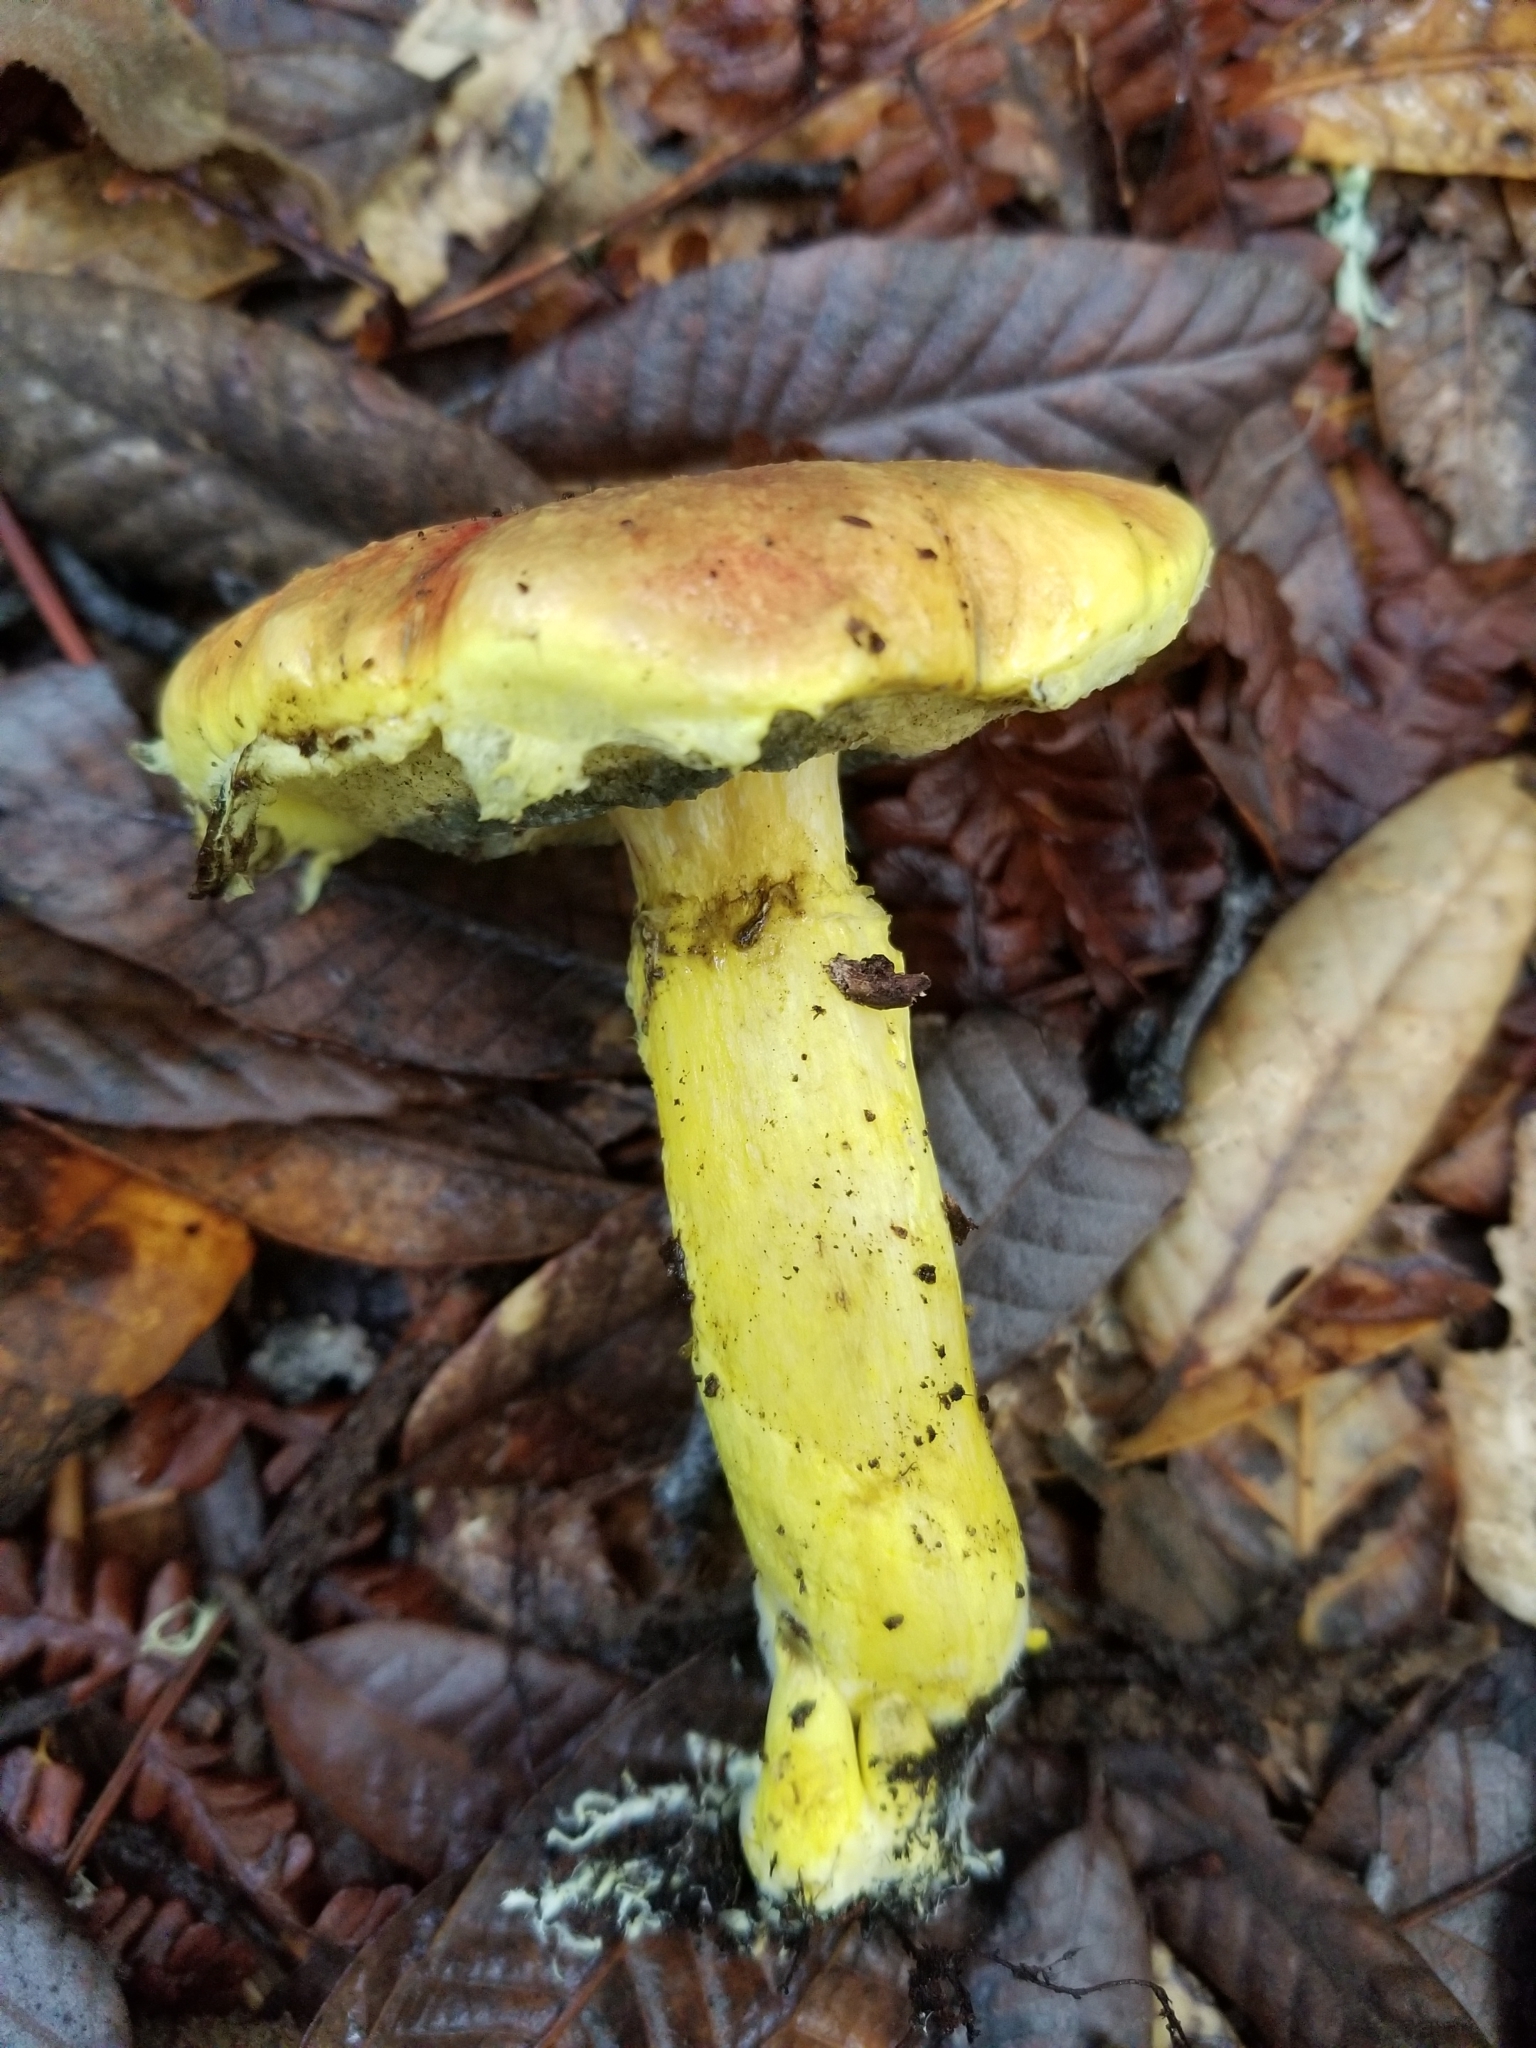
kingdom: Fungi
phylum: Basidiomycota
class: Agaricomycetes
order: Boletales
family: Boletaceae
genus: Pulveroboletus
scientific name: Pulveroboletus ravenelii
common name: Powdery sulfur bolete
